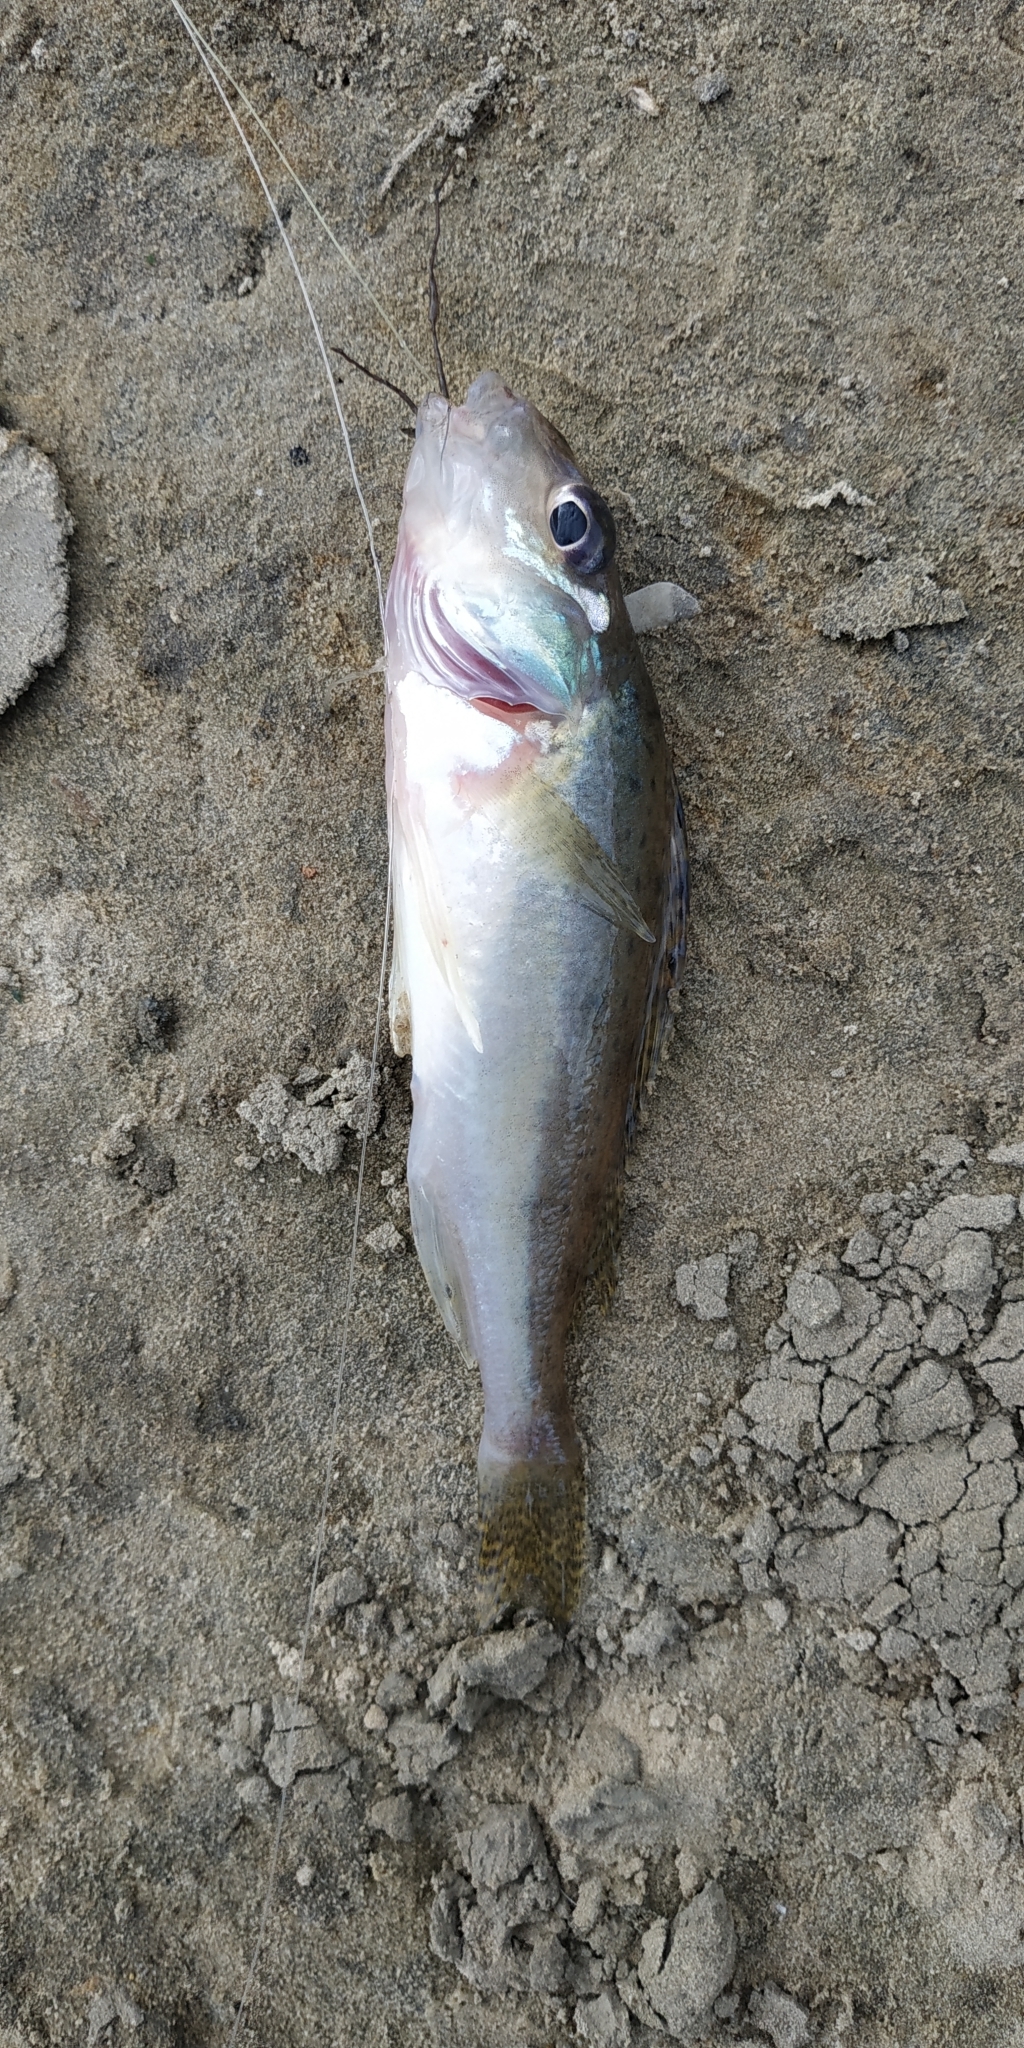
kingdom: Animalia
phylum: Chordata
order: Perciformes
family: Percidae
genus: Gymnocephalus
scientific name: Gymnocephalus cernua
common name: Ruffe
